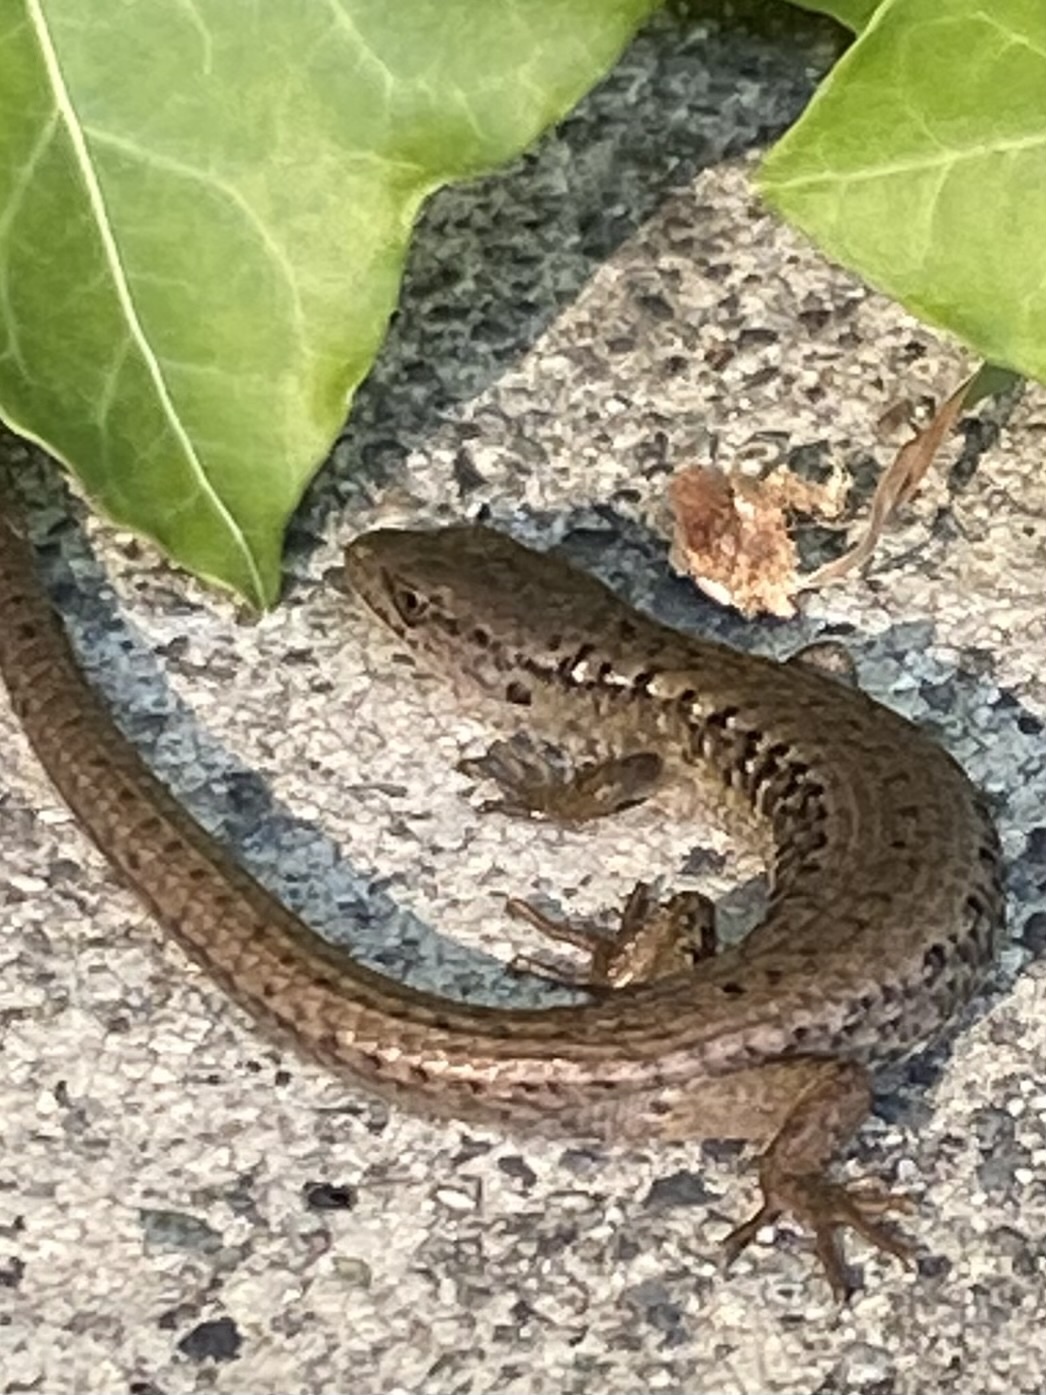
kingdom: Animalia
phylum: Chordata
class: Squamata
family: Anguidae
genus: Elgaria
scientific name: Elgaria coerulea
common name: Northern alligator lizard
